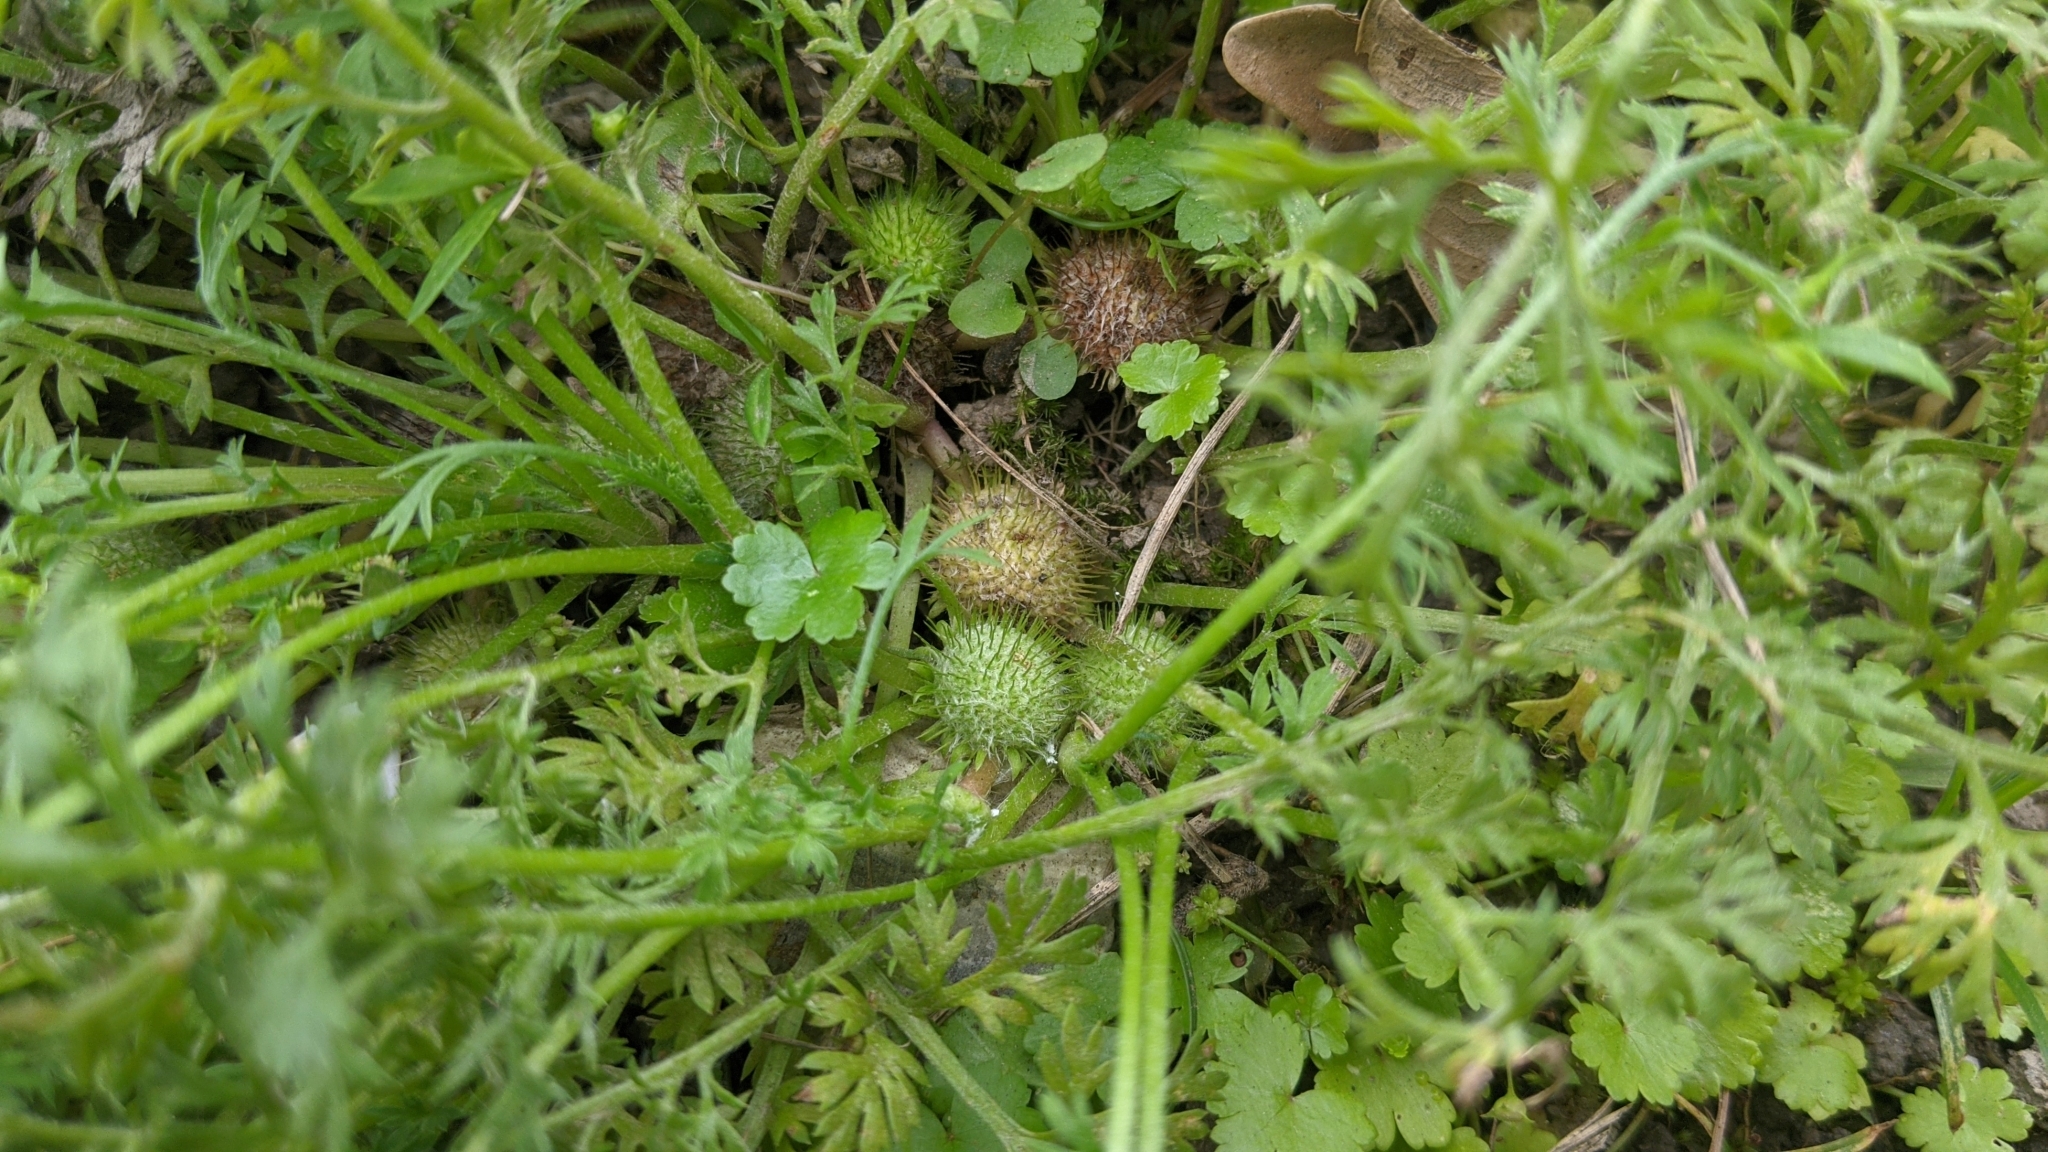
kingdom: Plantae
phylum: Tracheophyta
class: Magnoliopsida
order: Asterales
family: Asteraceae
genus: Soliva
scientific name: Soliva anthemifolia
